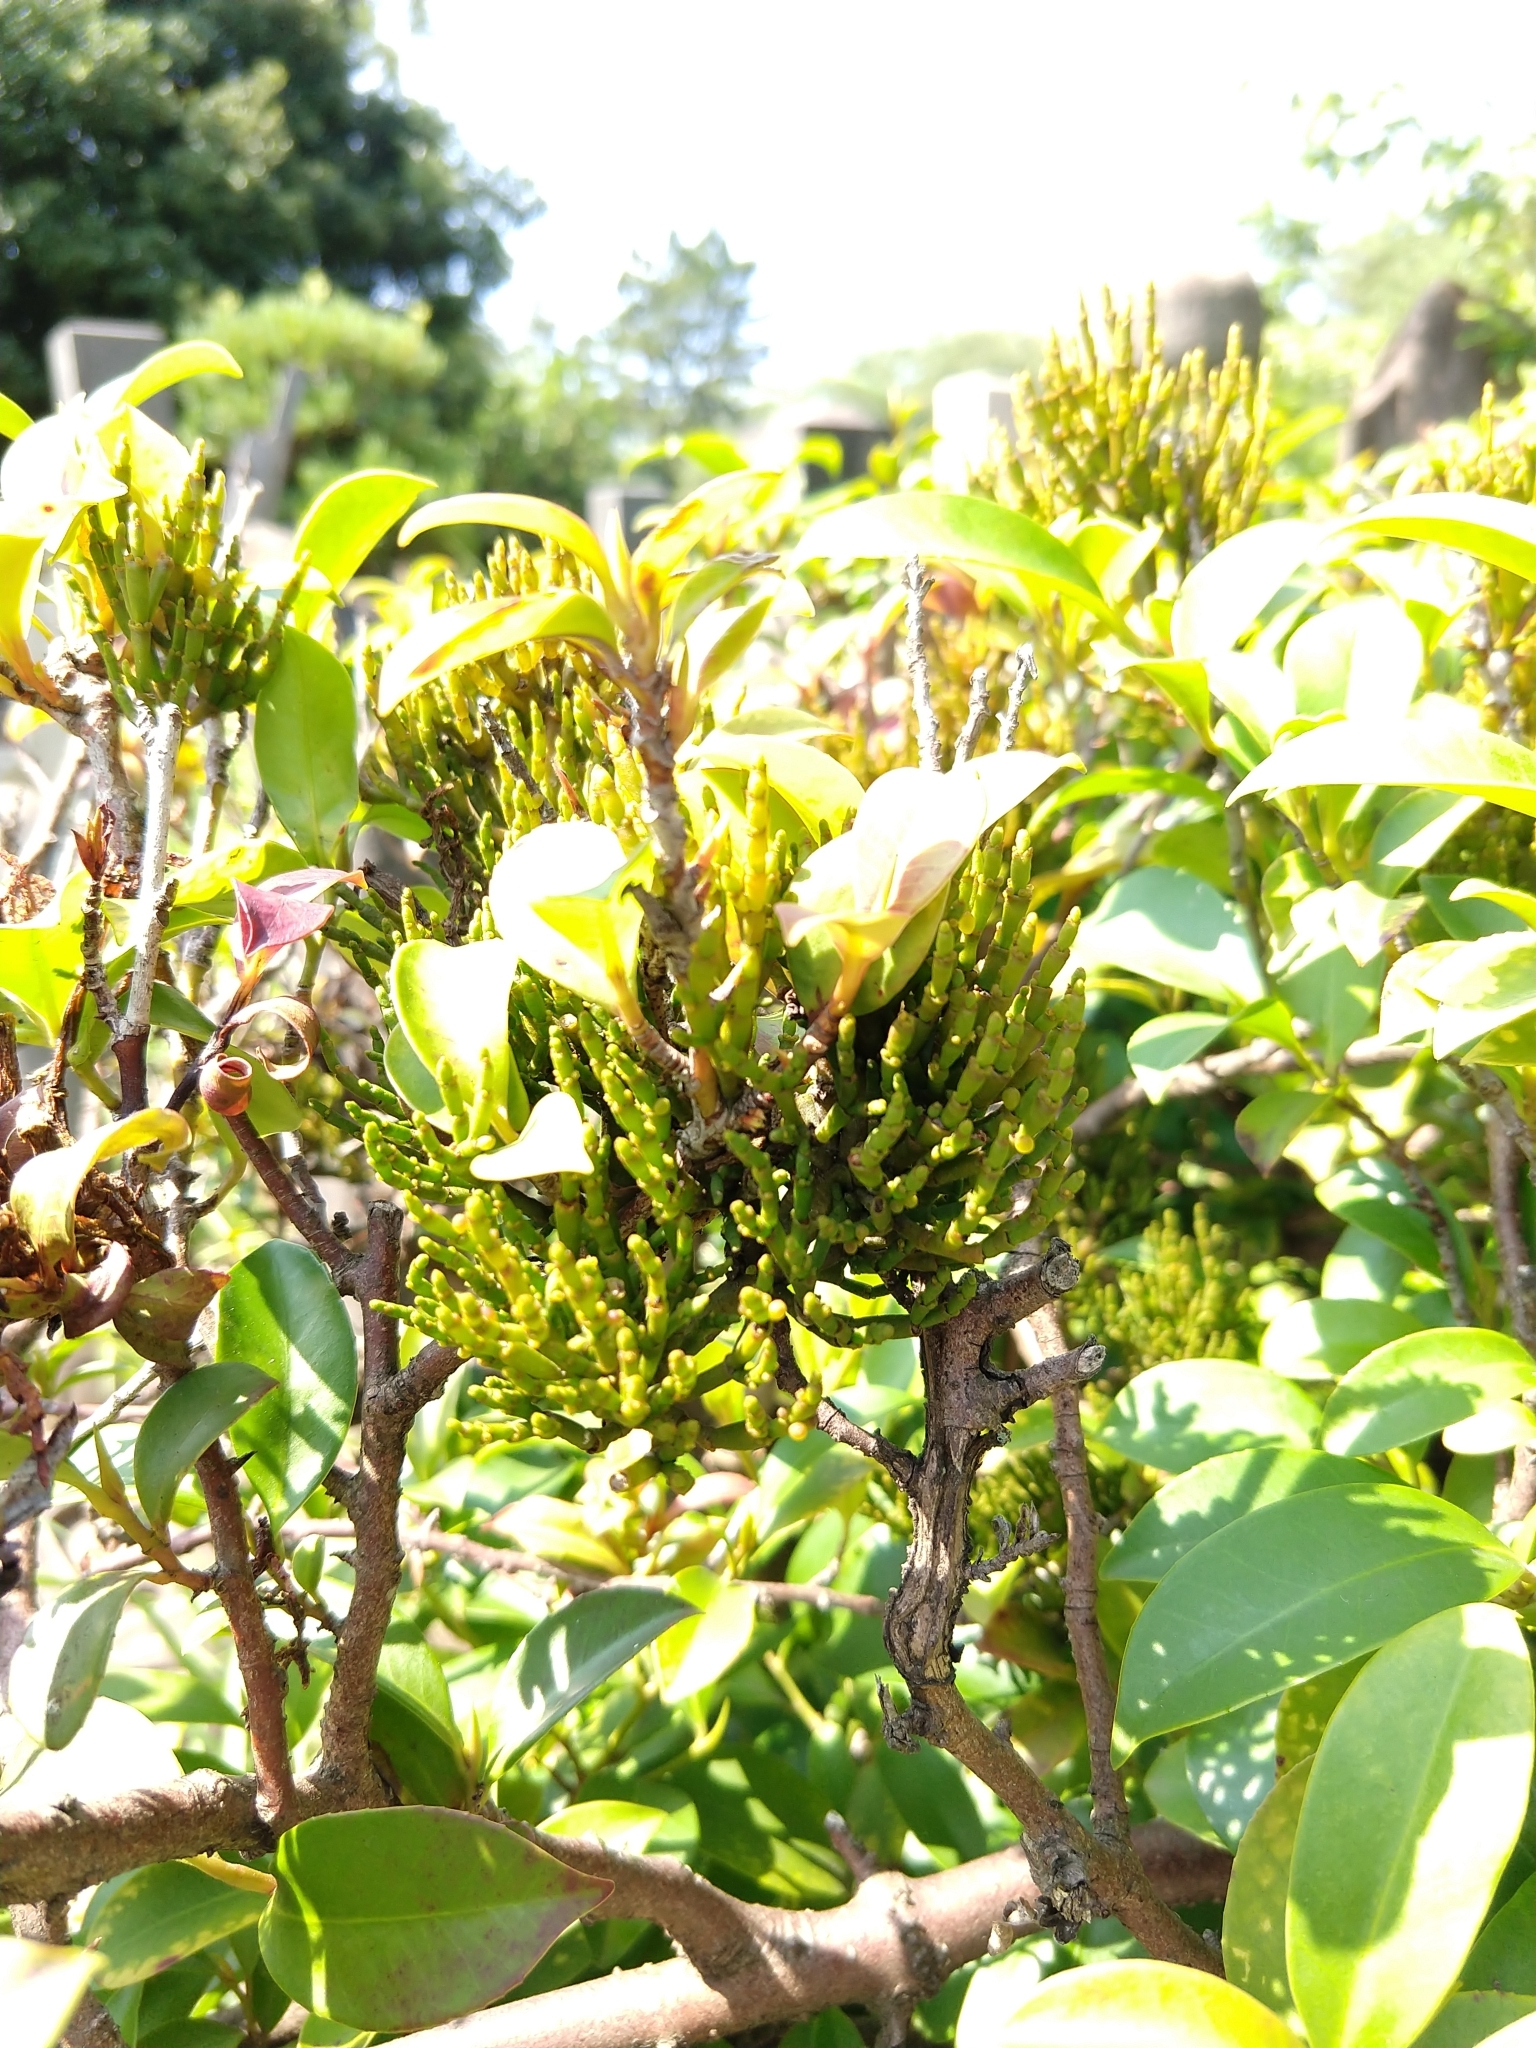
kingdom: Plantae
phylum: Tracheophyta
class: Magnoliopsida
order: Santalales
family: Viscaceae
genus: Korthalsella
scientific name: Korthalsella japonica
